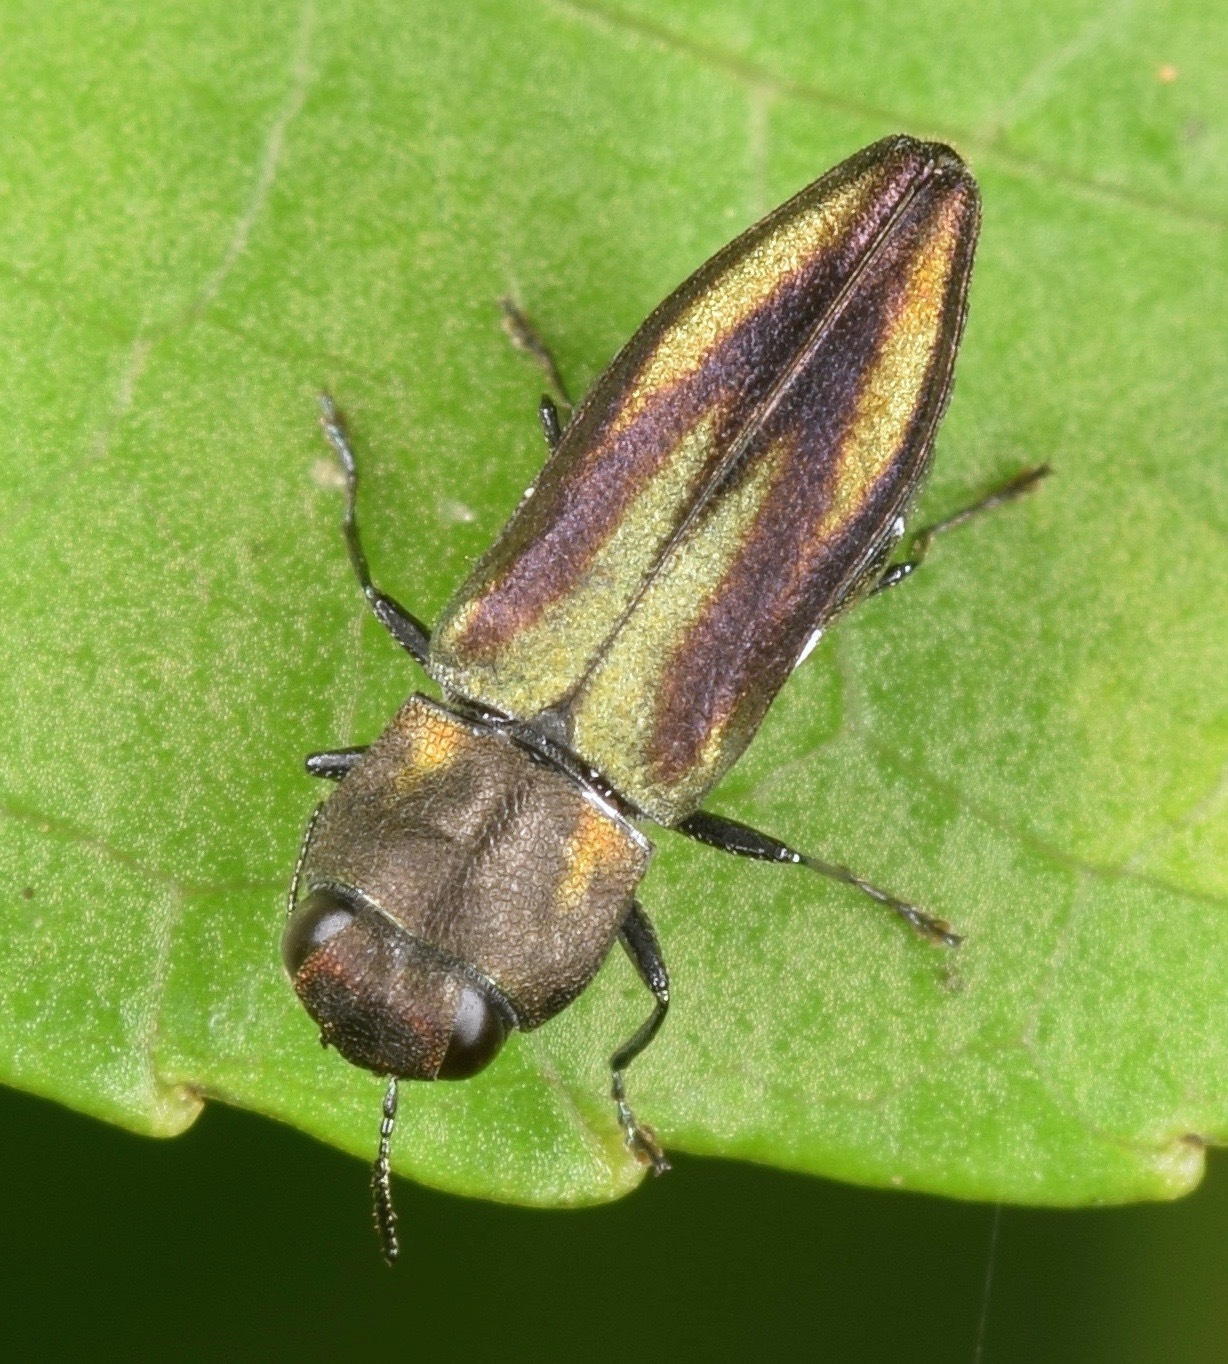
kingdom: Animalia
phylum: Arthropoda
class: Insecta
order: Coleoptera
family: Buprestidae
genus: Anthaxia
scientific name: Anthaxia quercata
